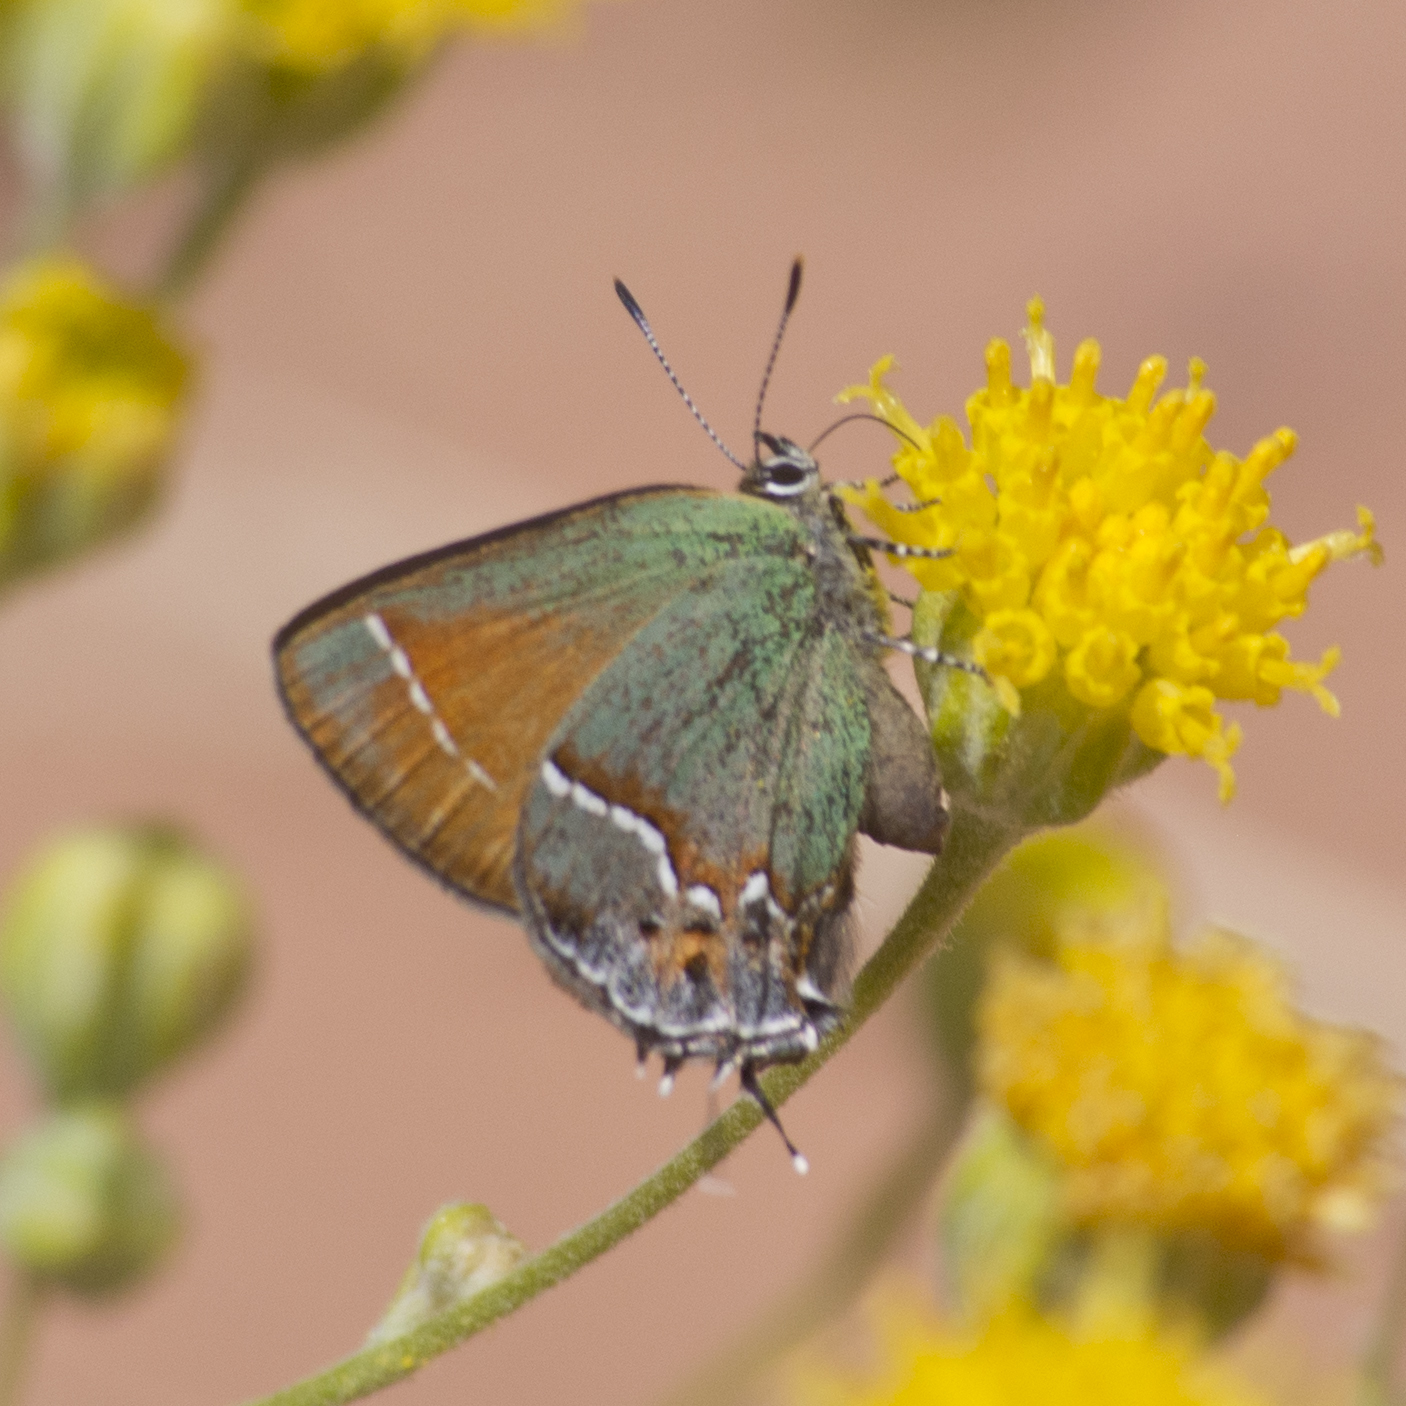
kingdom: Animalia
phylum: Arthropoda
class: Insecta
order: Lepidoptera
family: Lycaenidae
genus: Mitoura
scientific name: Mitoura siva
